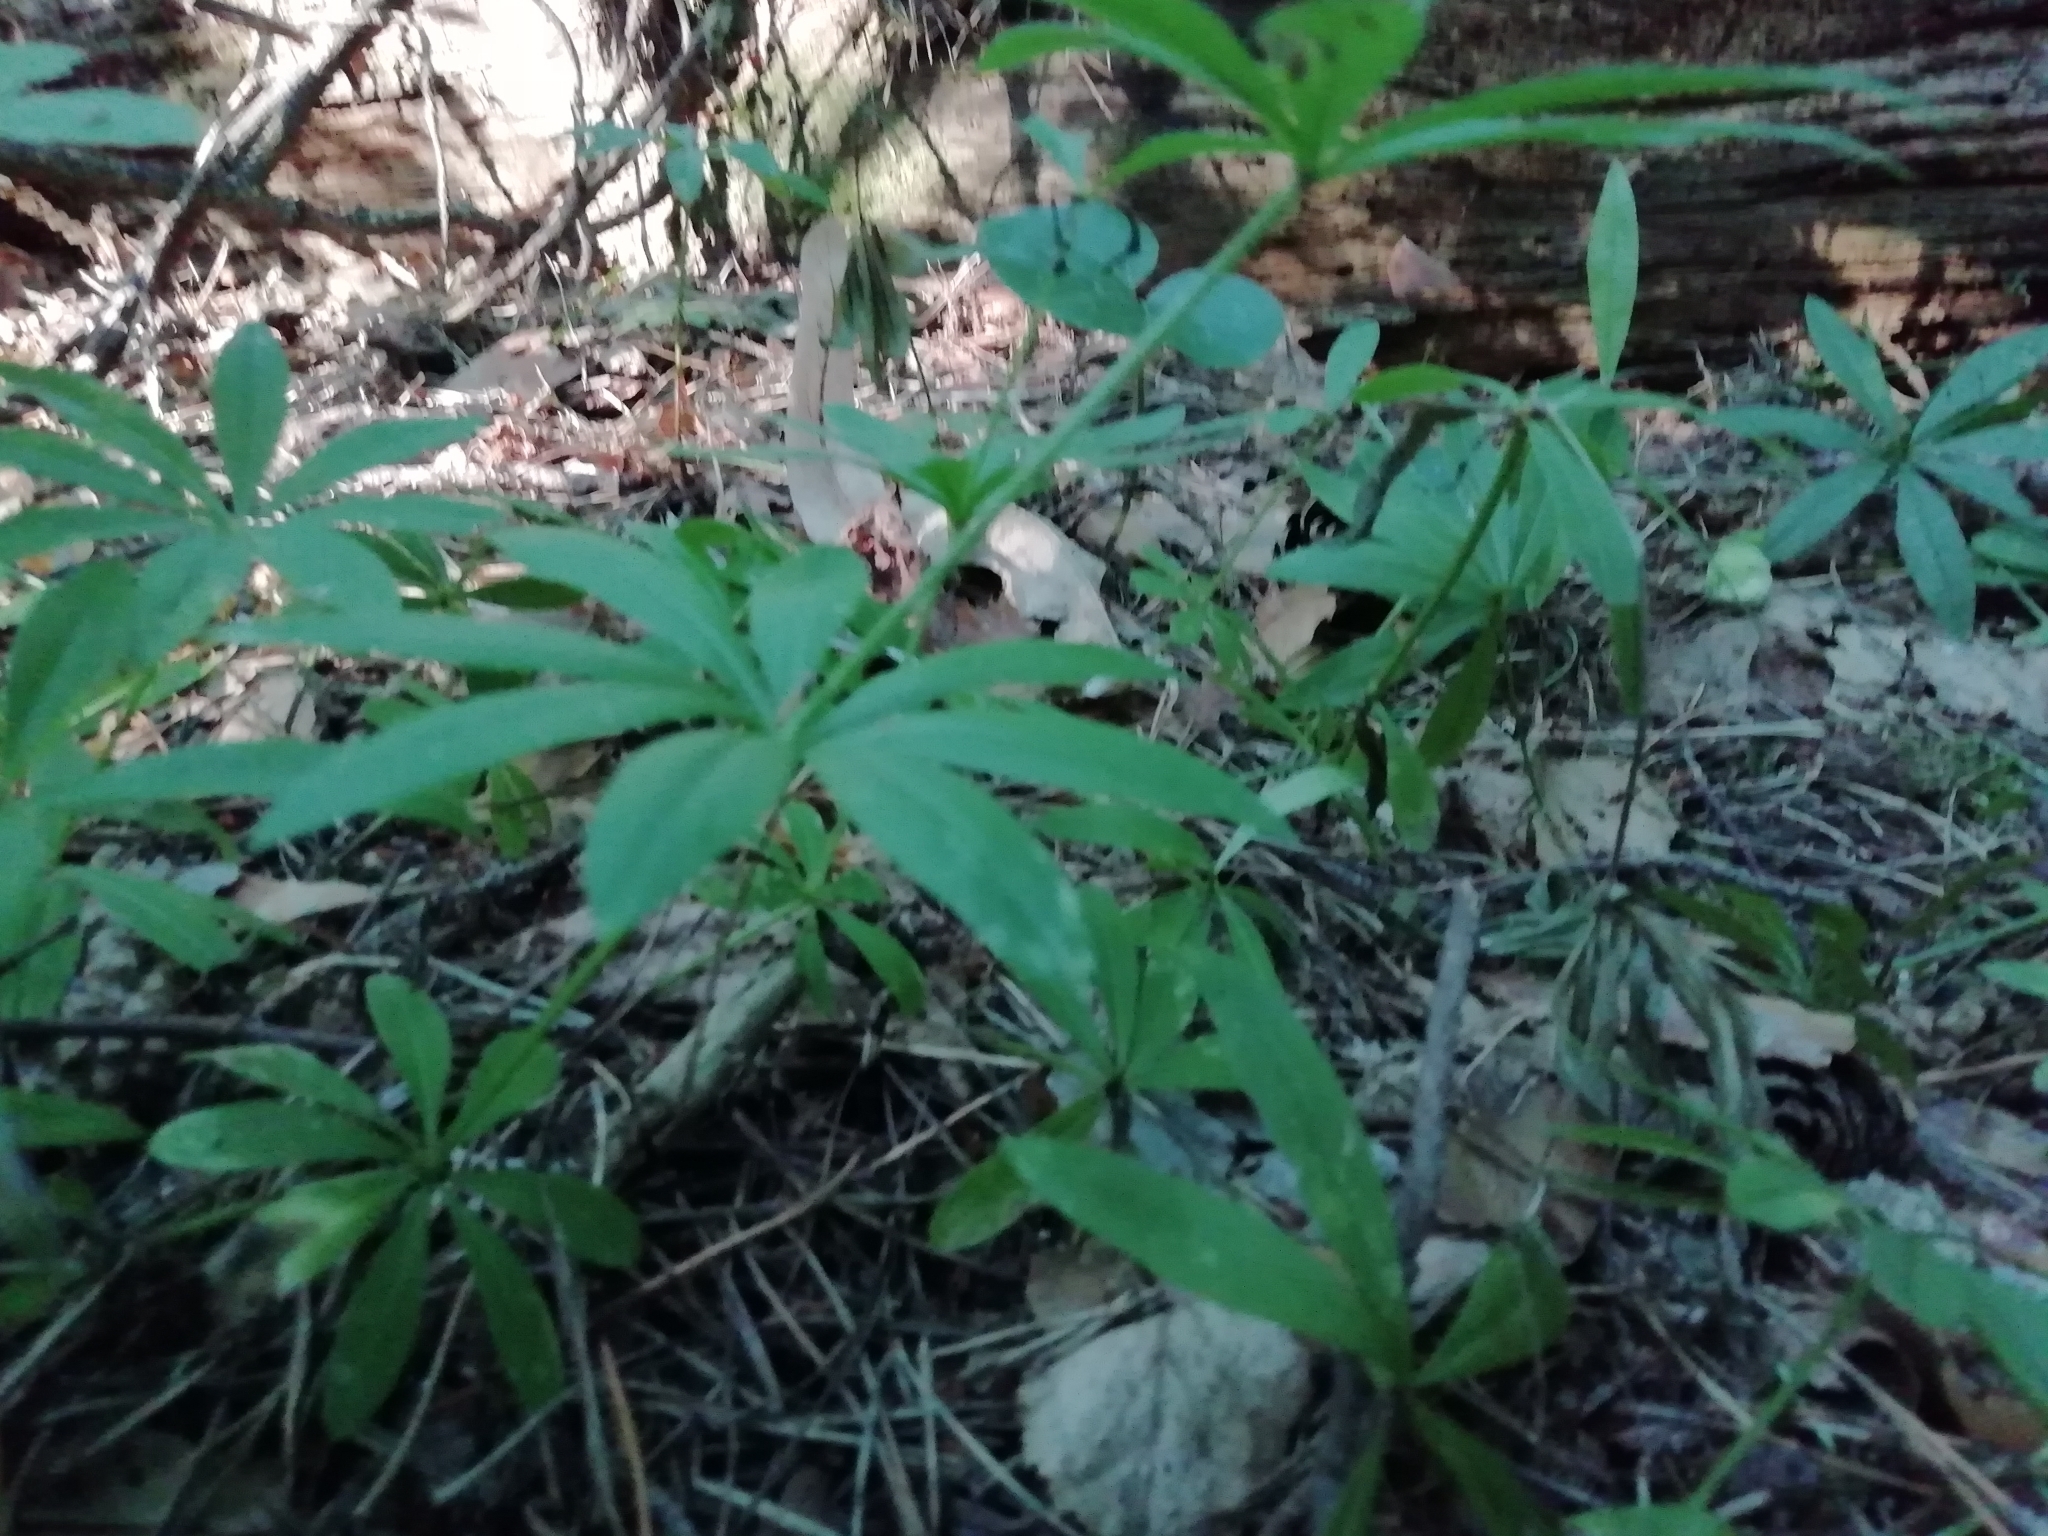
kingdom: Plantae
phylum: Tracheophyta
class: Magnoliopsida
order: Gentianales
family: Rubiaceae
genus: Galium
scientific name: Galium odoratum
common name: Sweet woodruff
